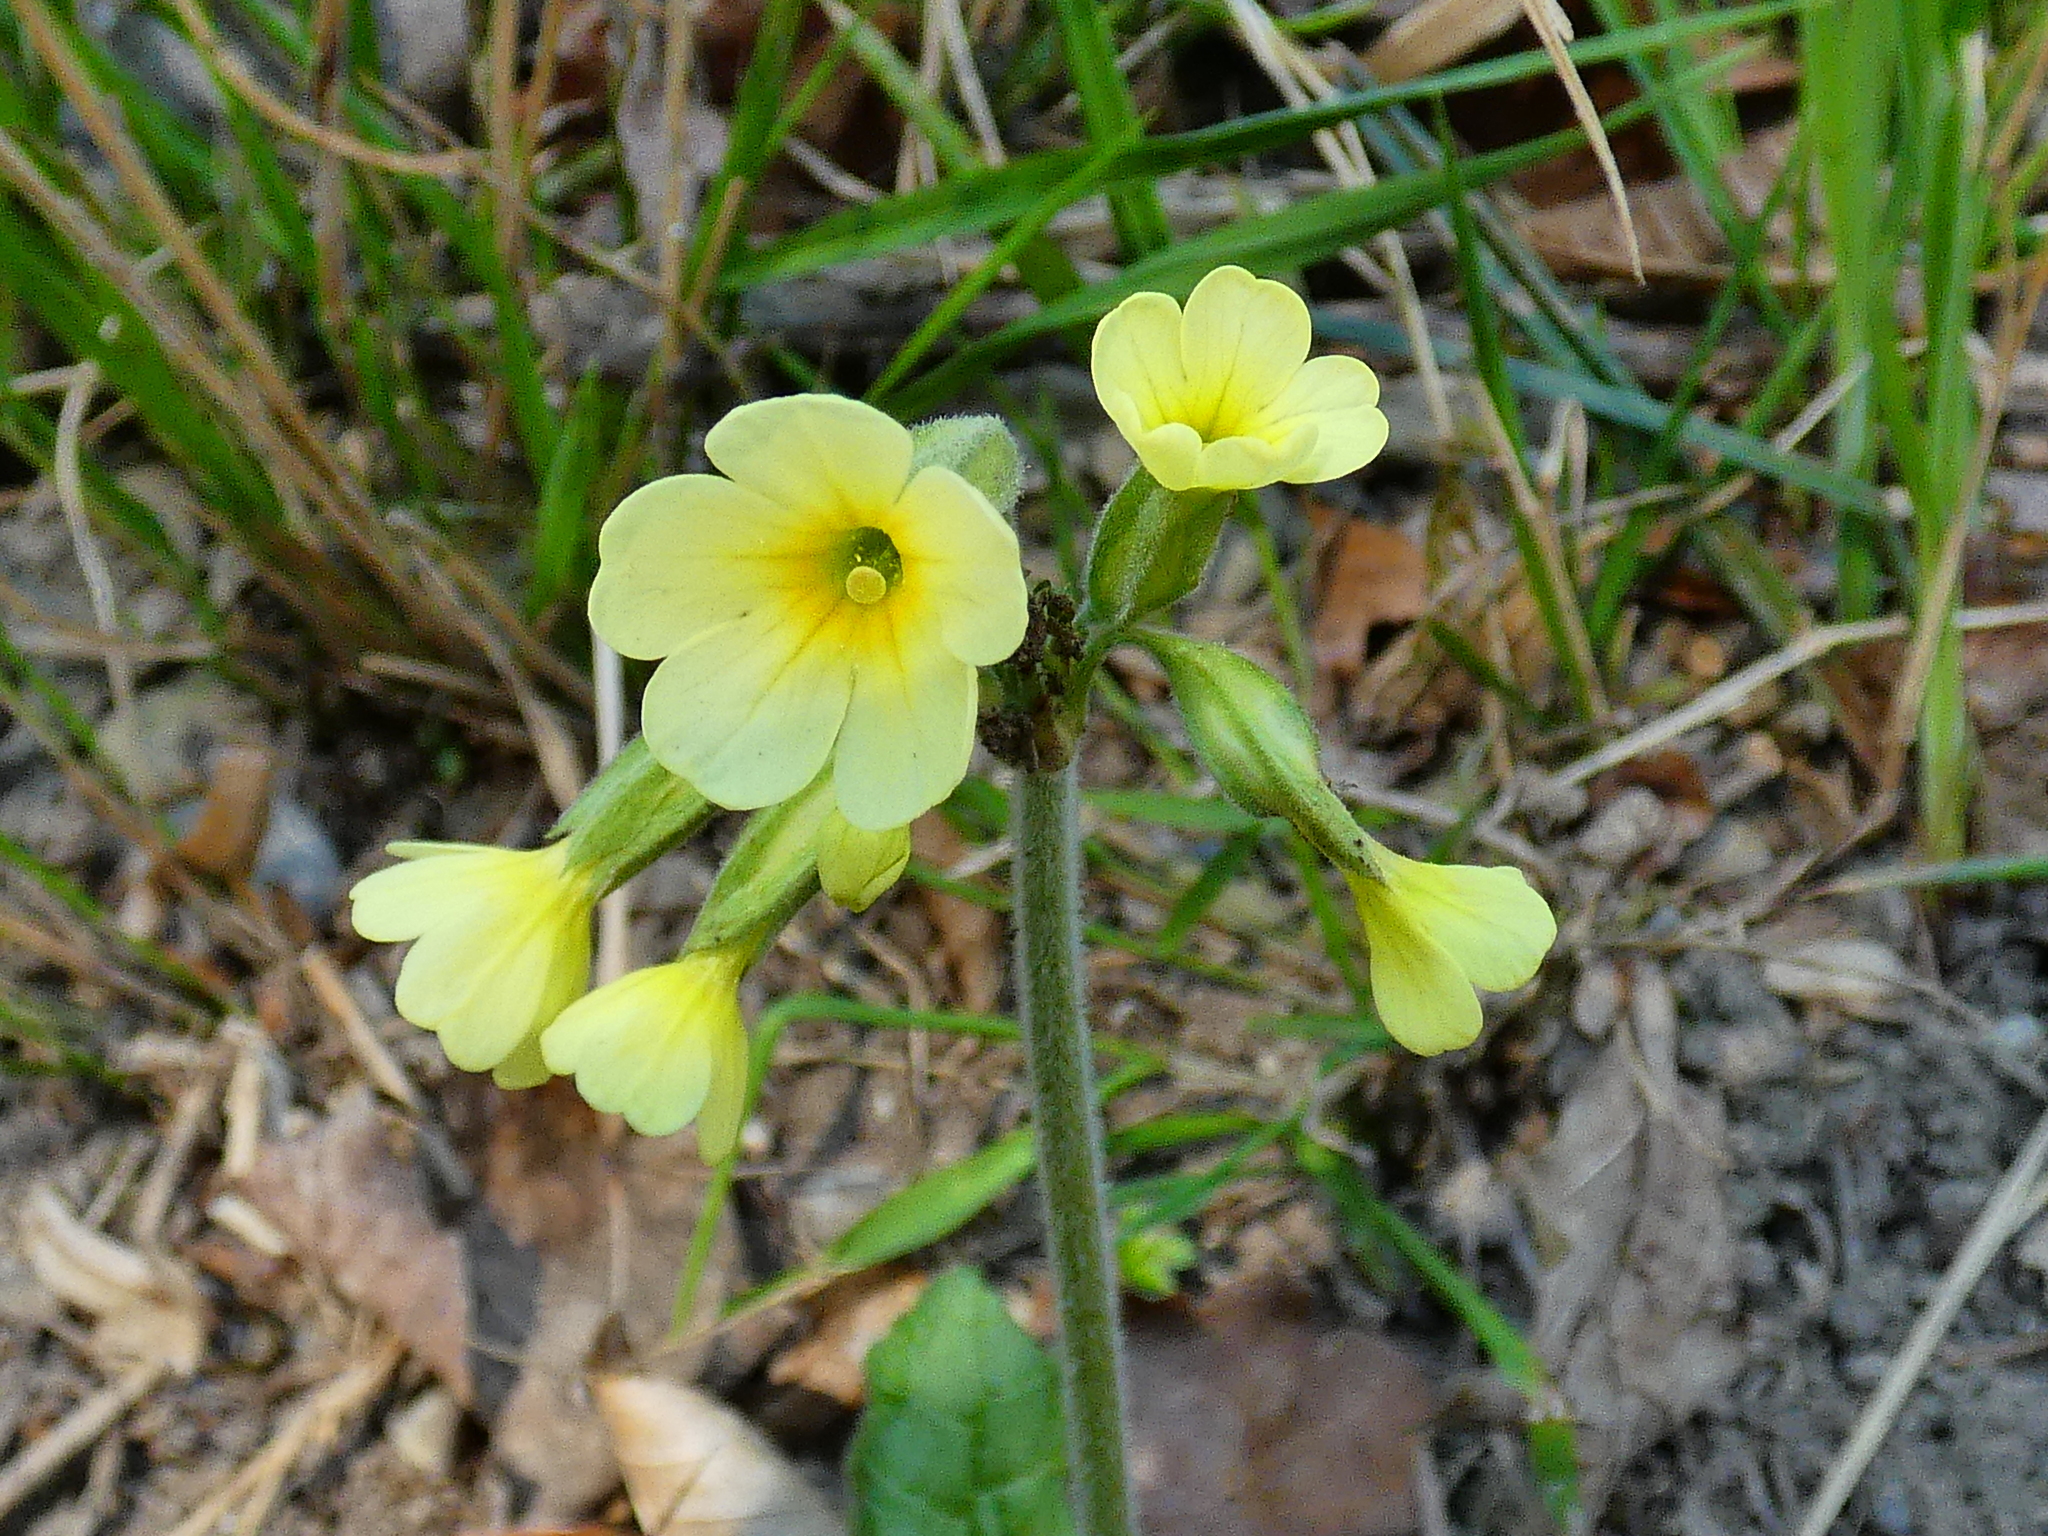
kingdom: Plantae
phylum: Tracheophyta
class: Magnoliopsida
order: Ericales
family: Primulaceae
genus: Primula
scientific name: Primula elatior
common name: Oxlip
